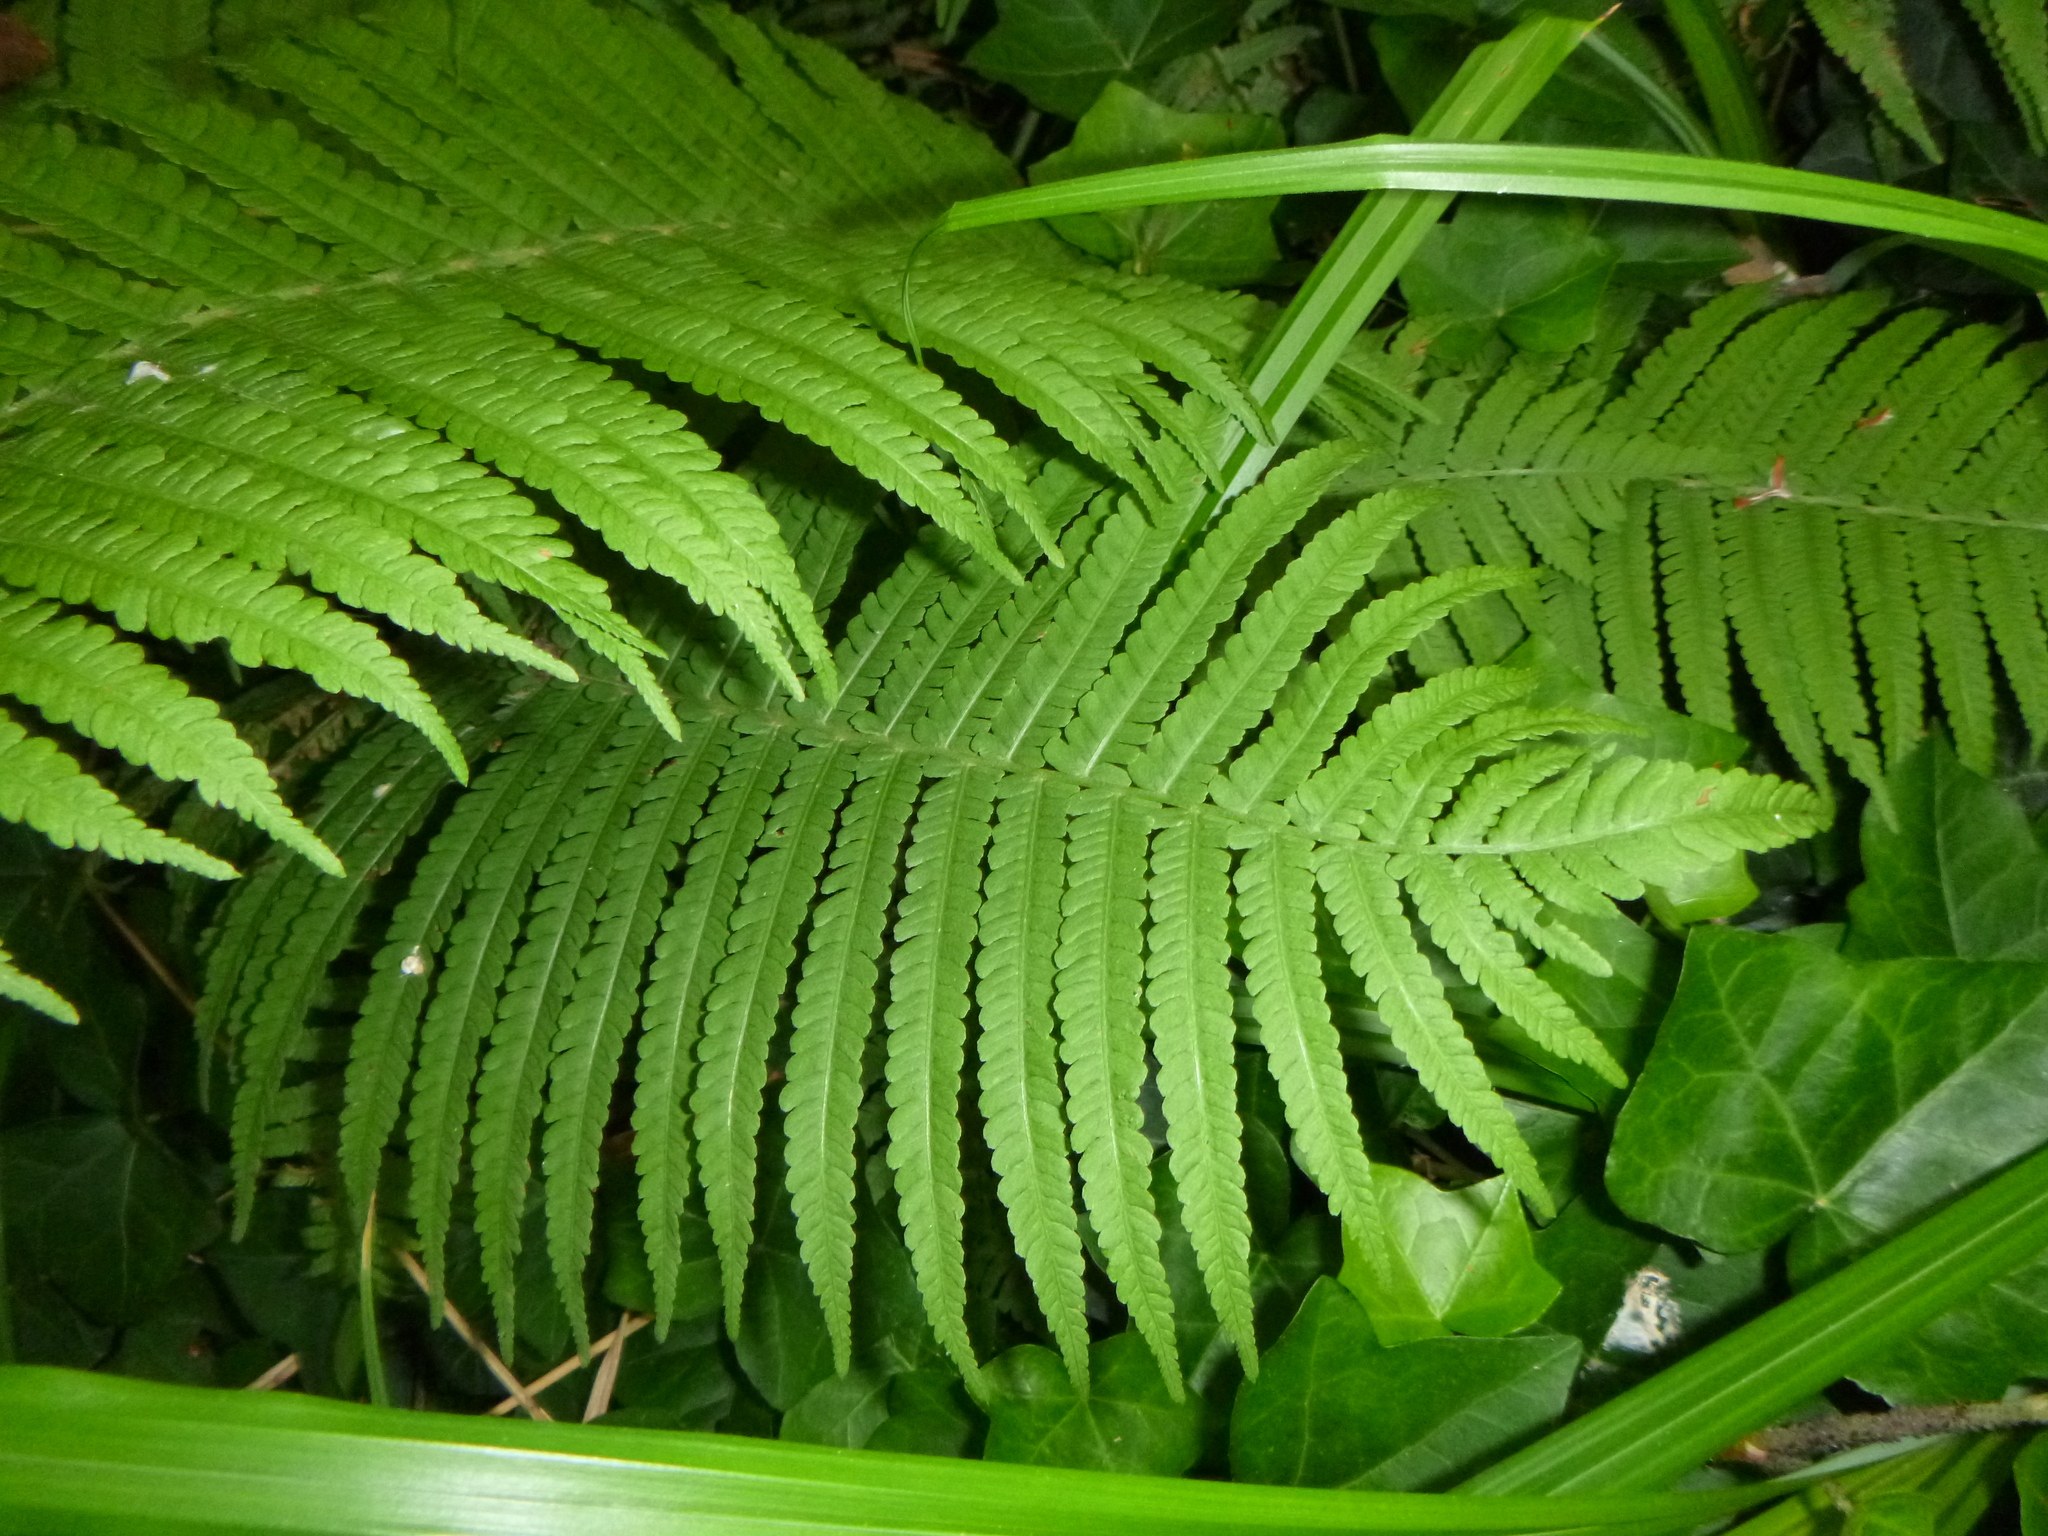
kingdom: Plantae
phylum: Tracheophyta
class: Polypodiopsida
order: Polypodiales
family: Onocleaceae
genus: Matteuccia
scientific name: Matteuccia struthiopteris
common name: Ostrich fern
